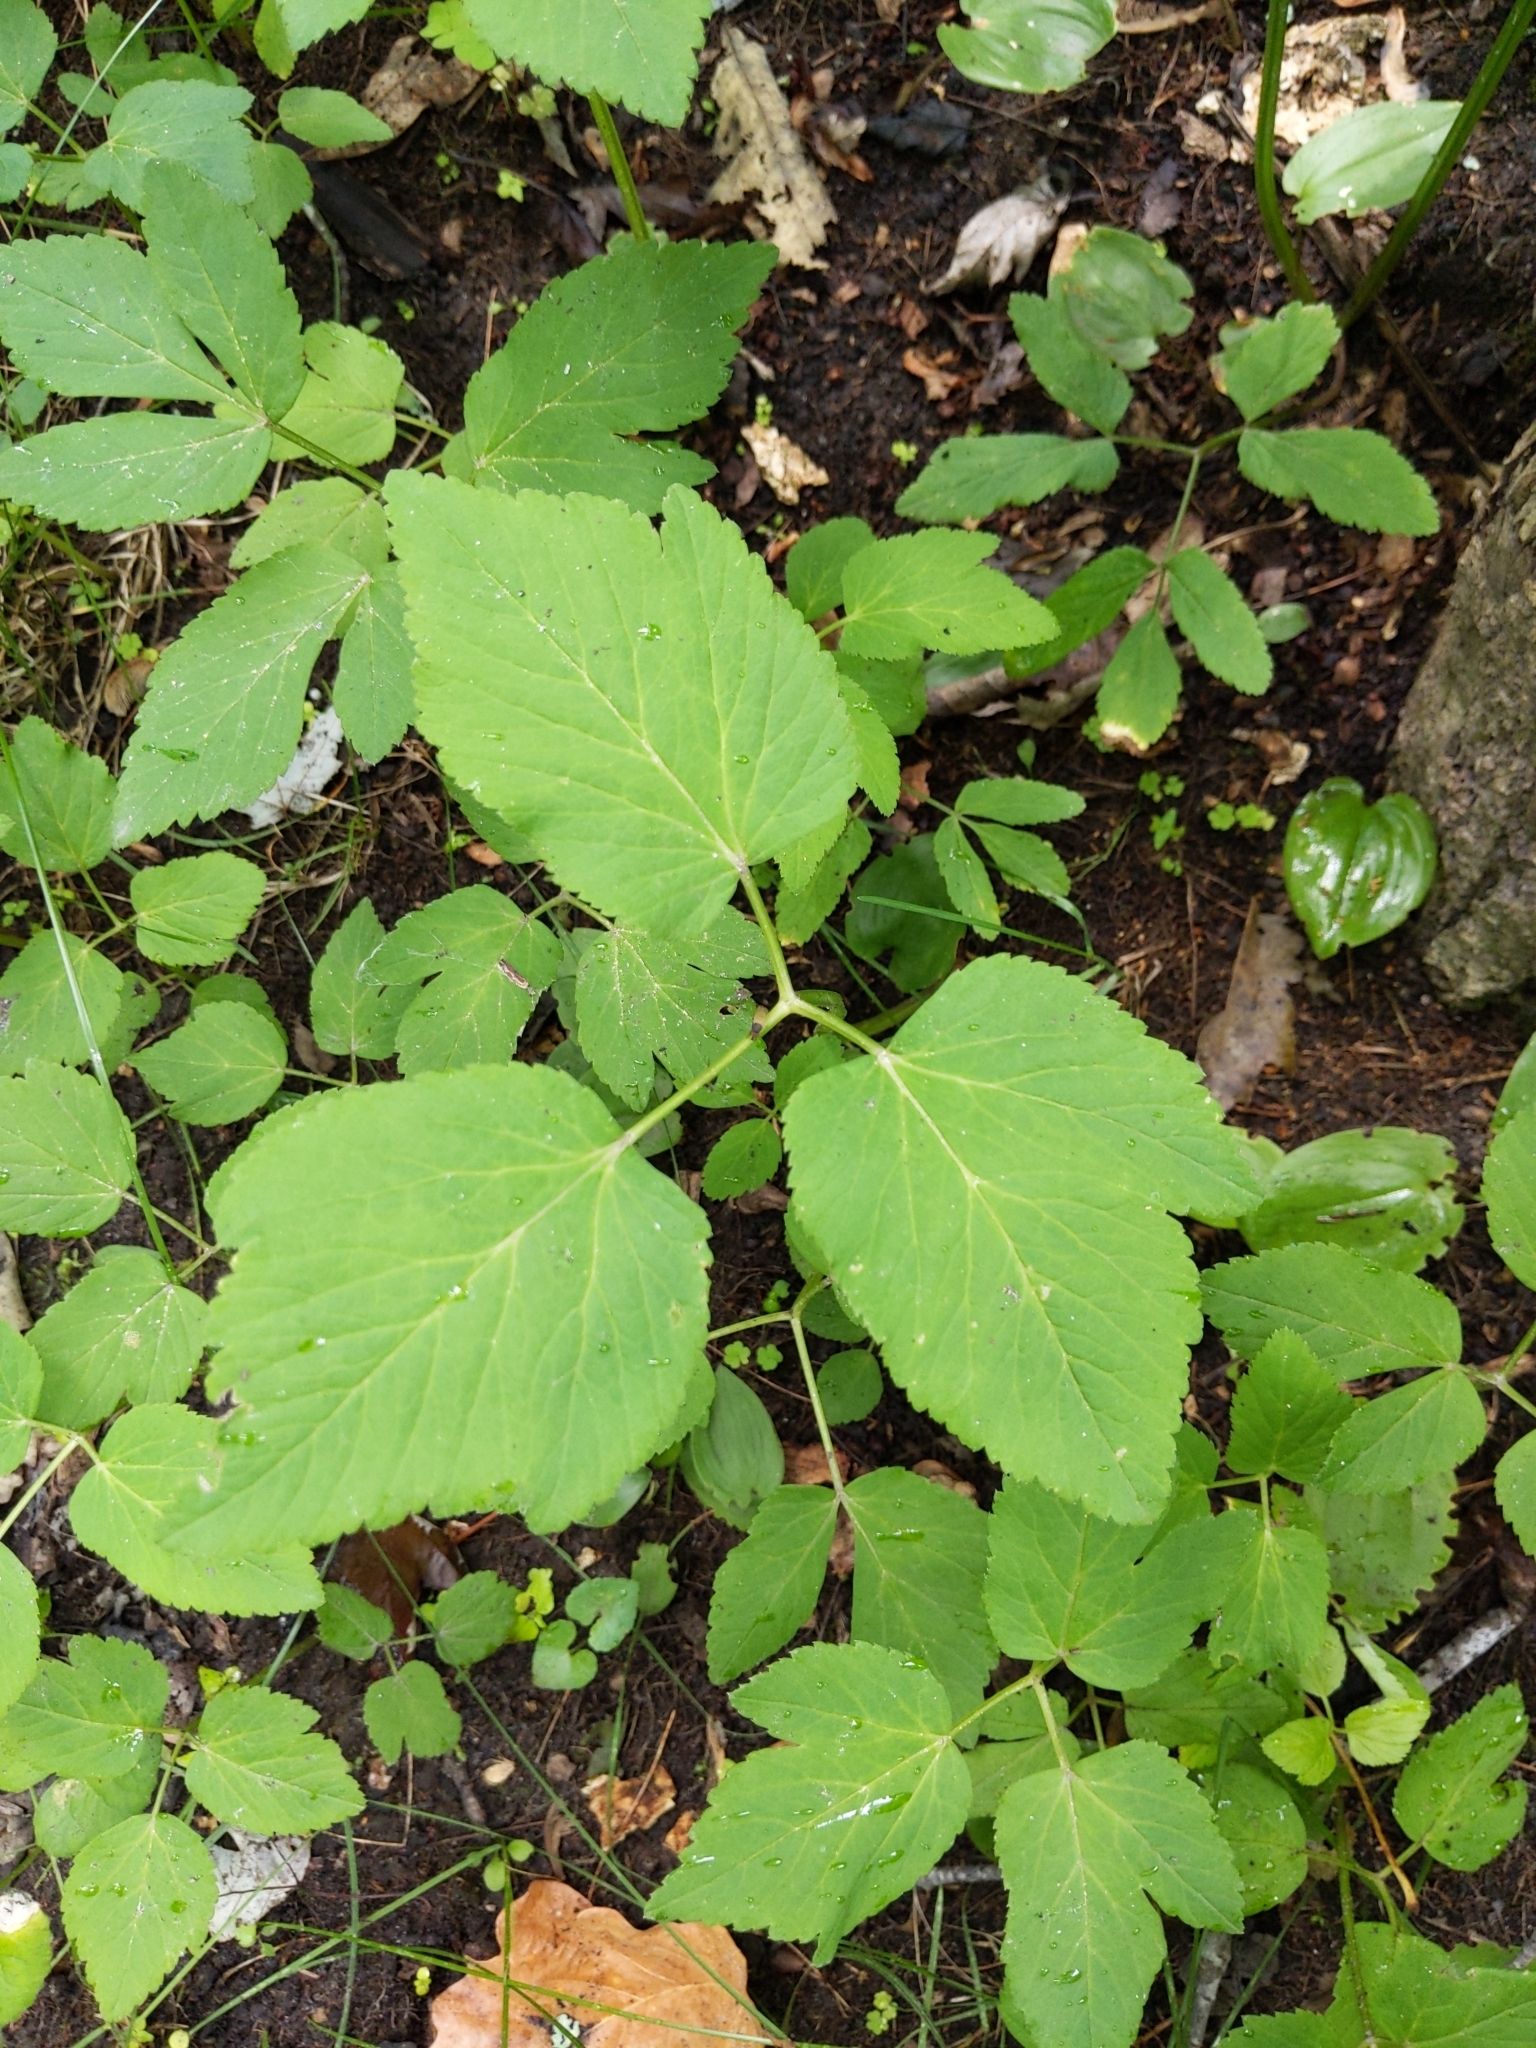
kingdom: Plantae
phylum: Tracheophyta
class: Magnoliopsida
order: Apiales
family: Apiaceae
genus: Aegopodium
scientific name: Aegopodium podagraria
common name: Ground-elder
